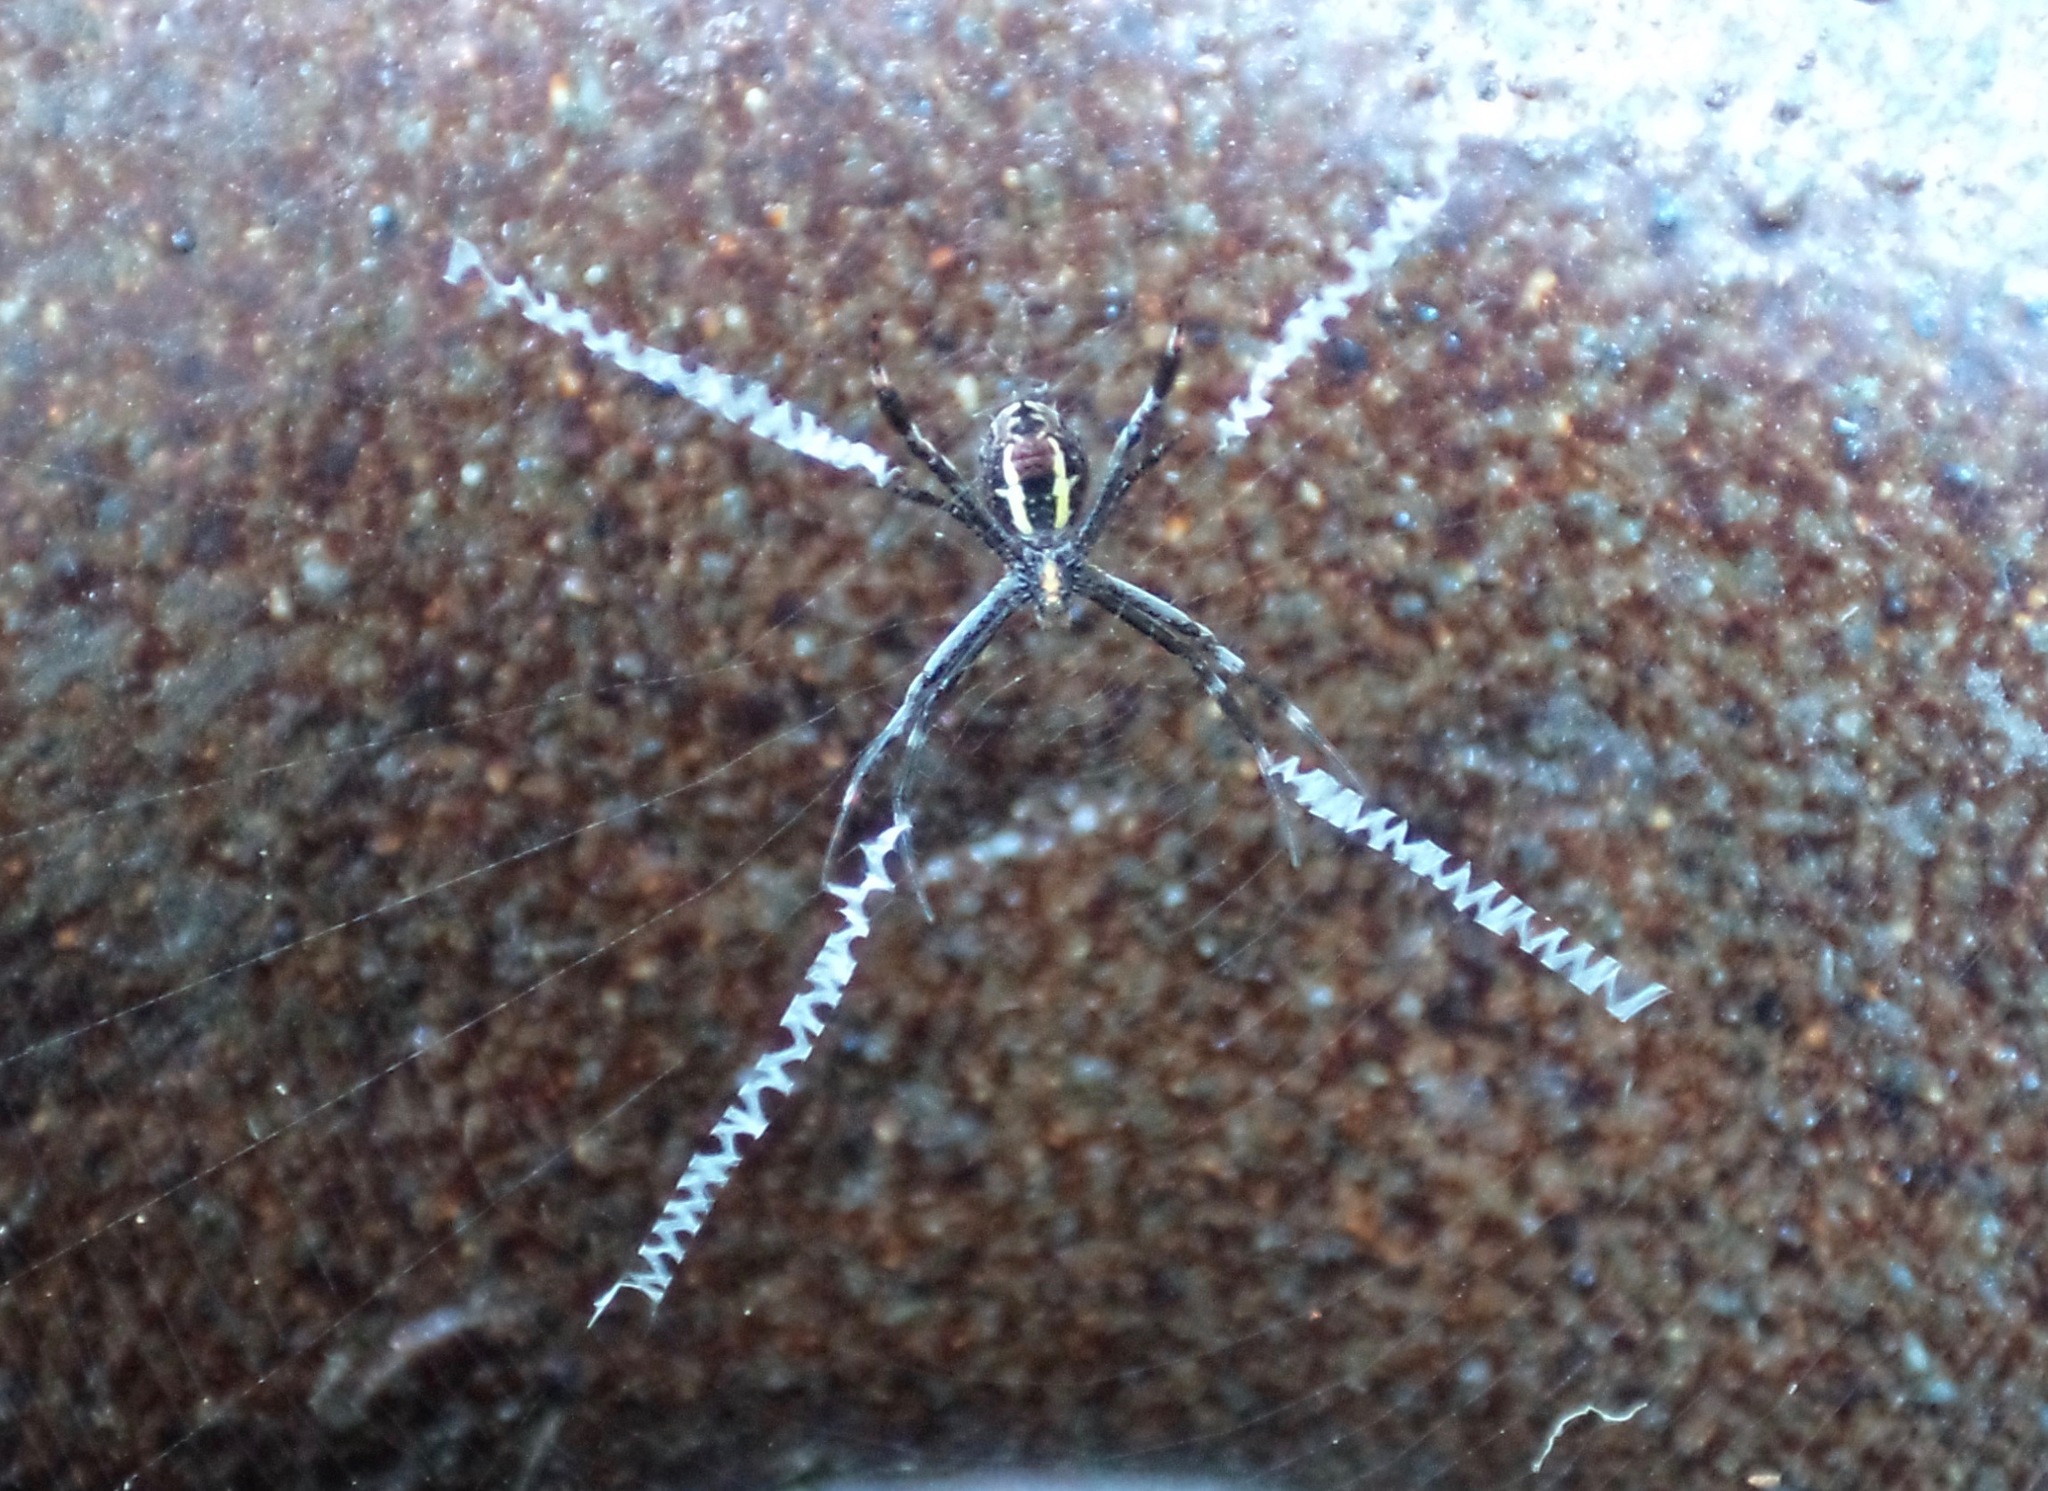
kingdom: Animalia
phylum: Arthropoda
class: Arachnida
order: Araneae
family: Araneidae
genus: Argiope
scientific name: Argiope aetherea
